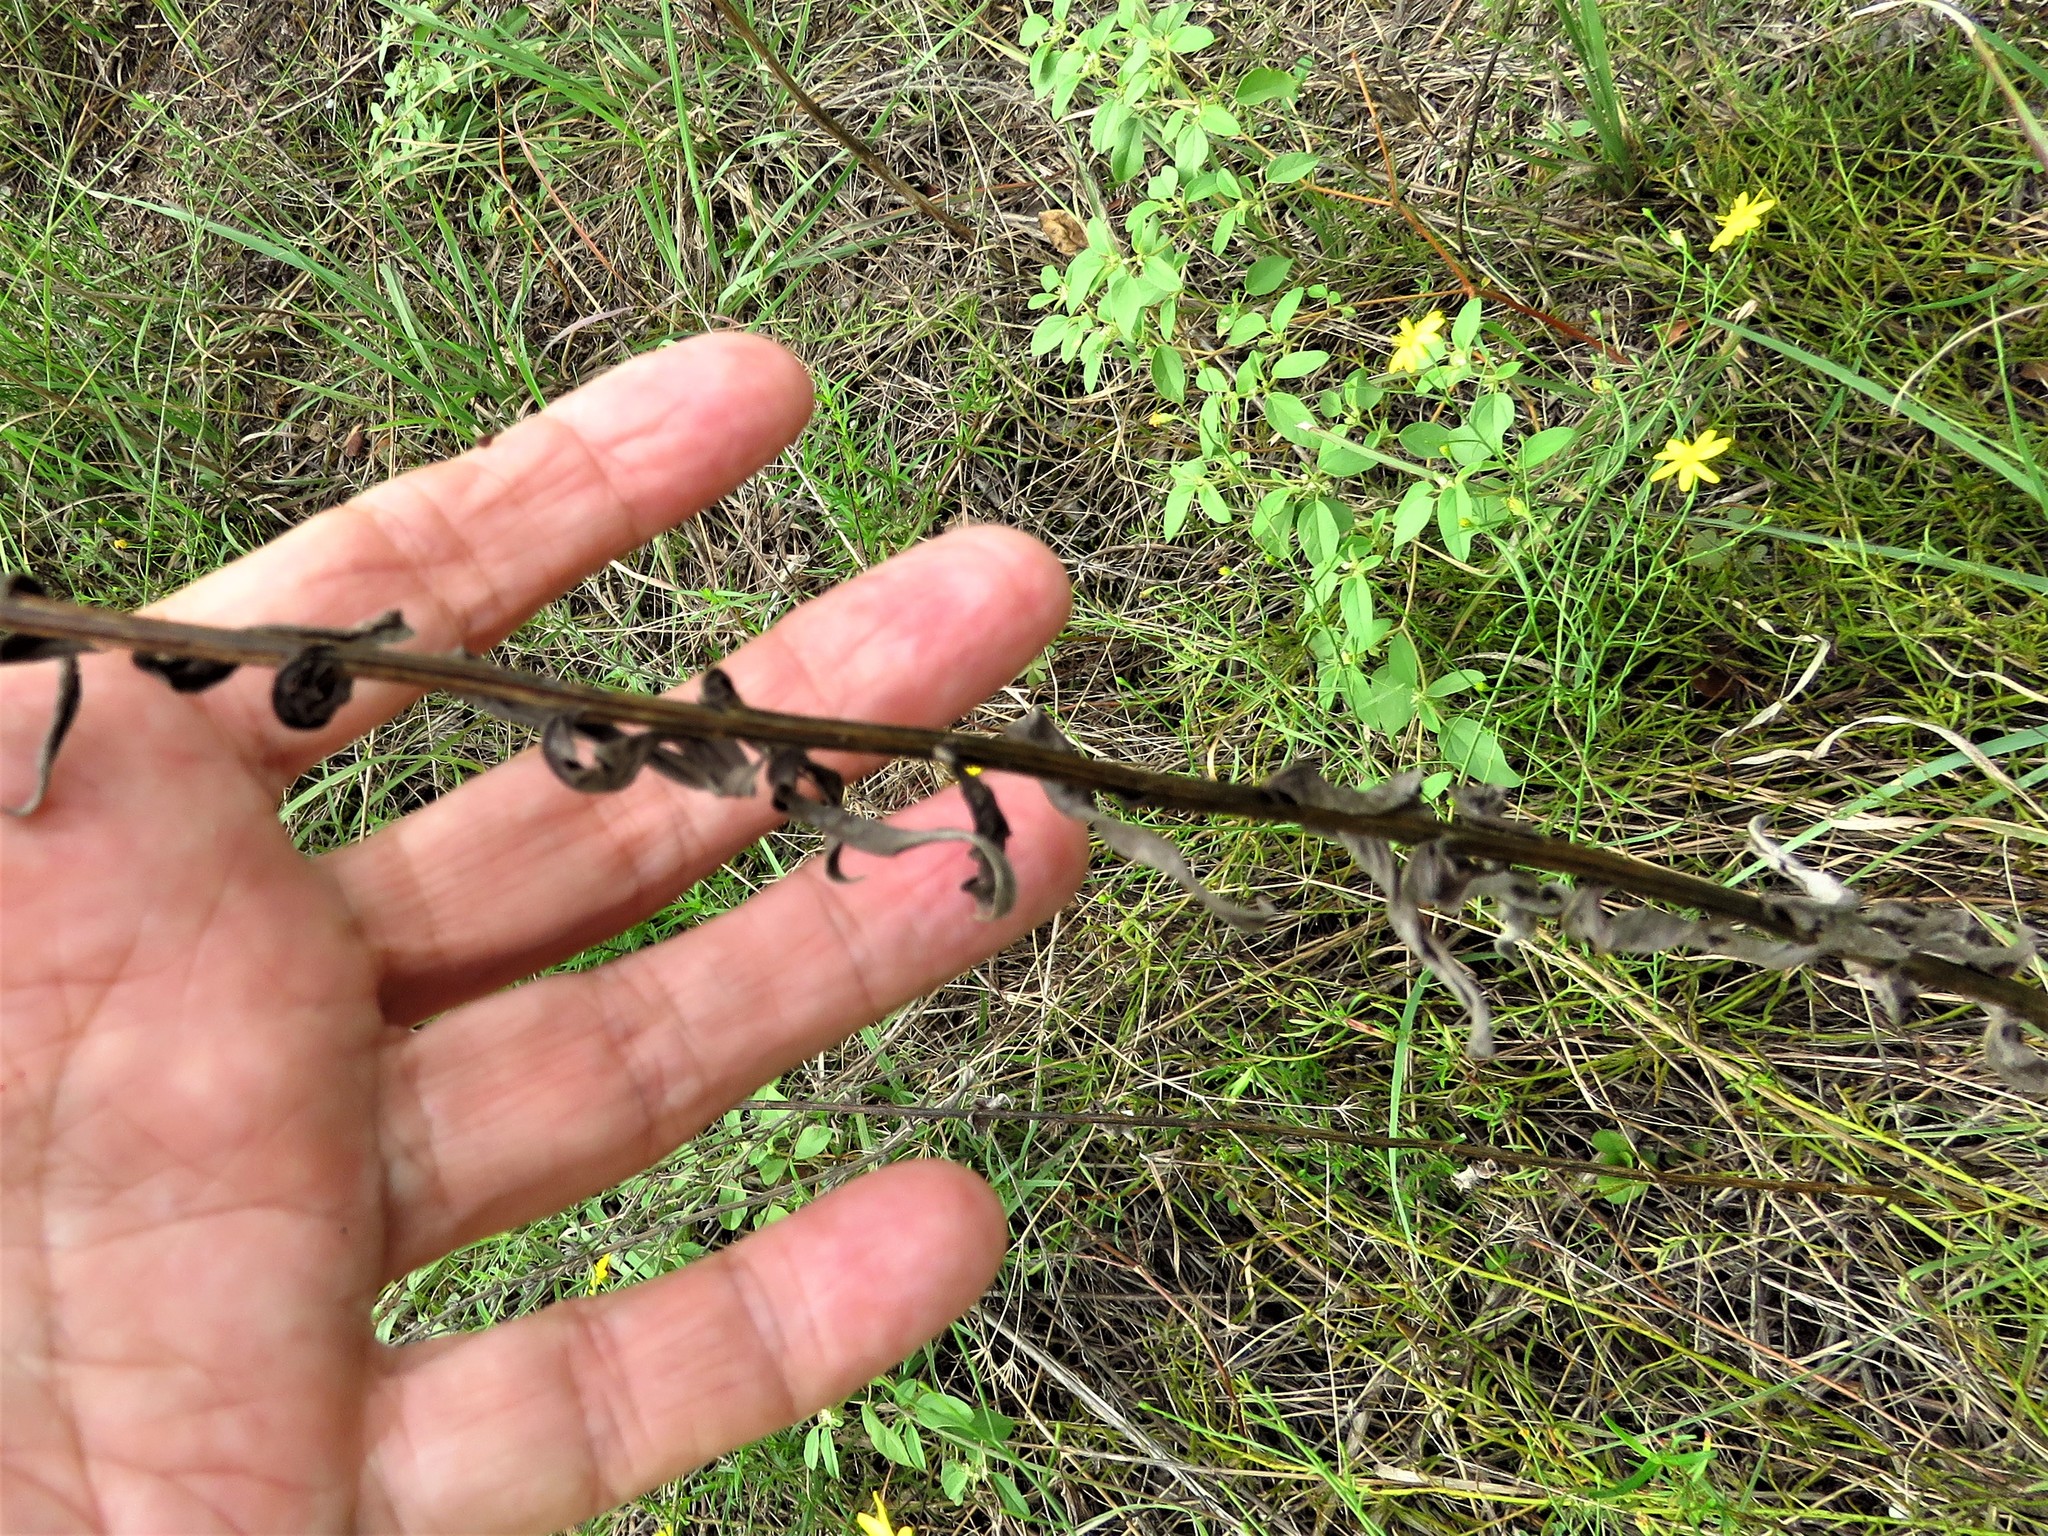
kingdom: Plantae
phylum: Tracheophyta
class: Magnoliopsida
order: Asterales
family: Asteraceae
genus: Plectocephalus
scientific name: Plectocephalus americanus
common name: American basket-flower
